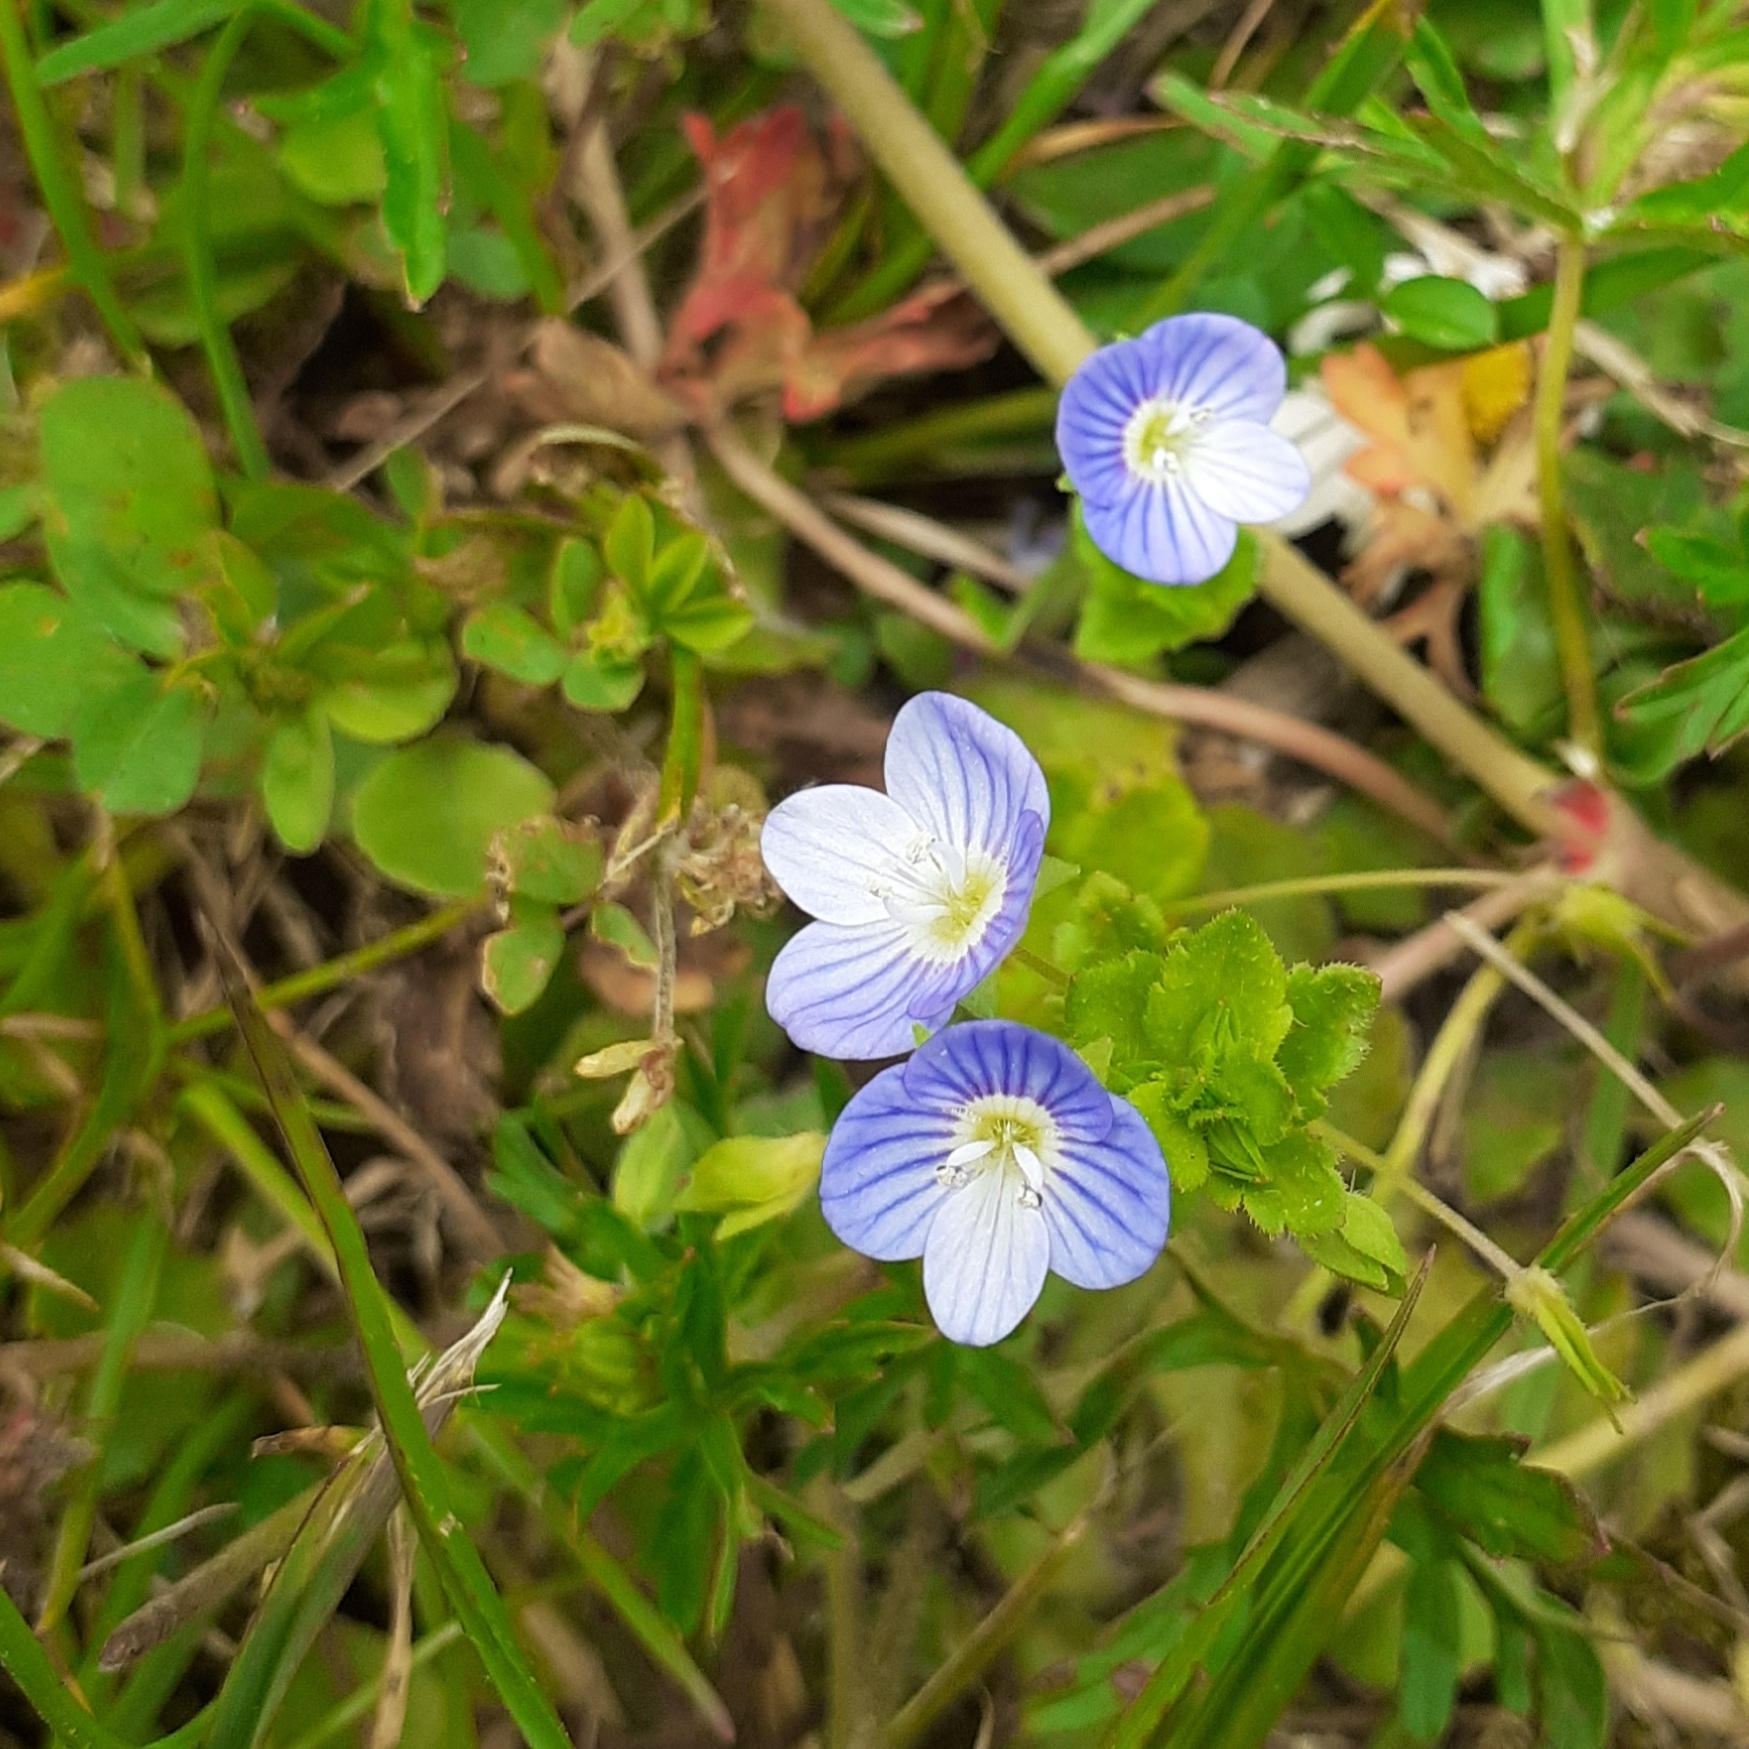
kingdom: Plantae
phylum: Tracheophyta
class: Magnoliopsida
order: Lamiales
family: Plantaginaceae
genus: Veronica
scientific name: Veronica chamaedrys
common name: Germander speedwell
